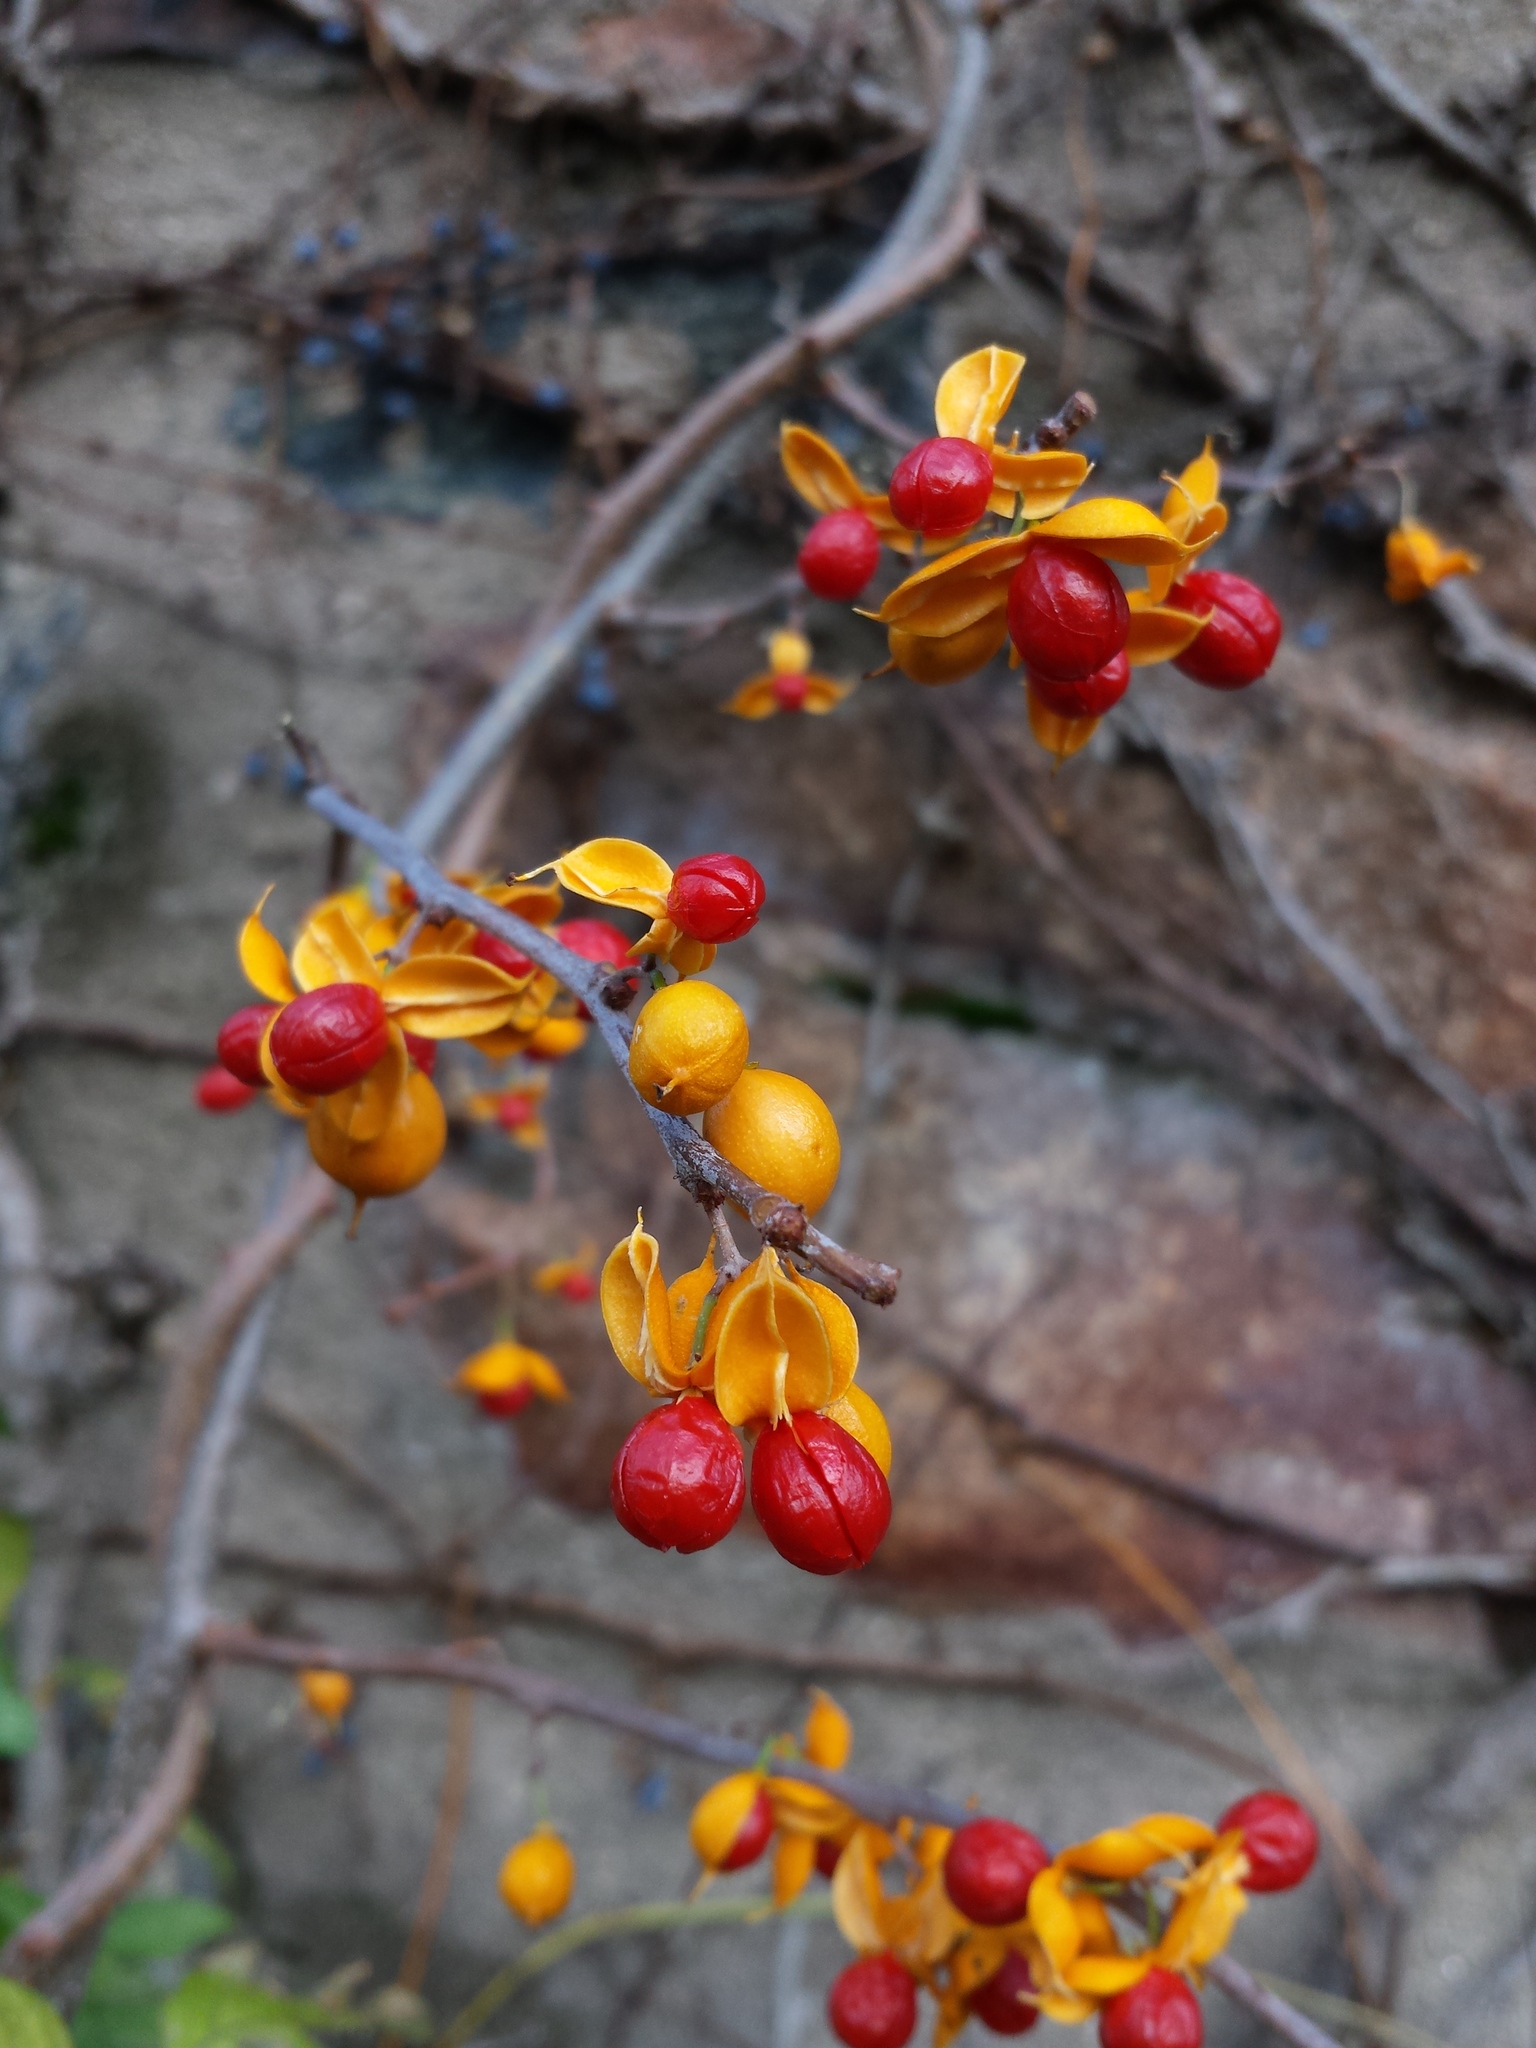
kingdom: Plantae
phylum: Tracheophyta
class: Magnoliopsida
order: Celastrales
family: Celastraceae
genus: Celastrus
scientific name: Celastrus orbiculatus
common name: Oriental bittersweet
